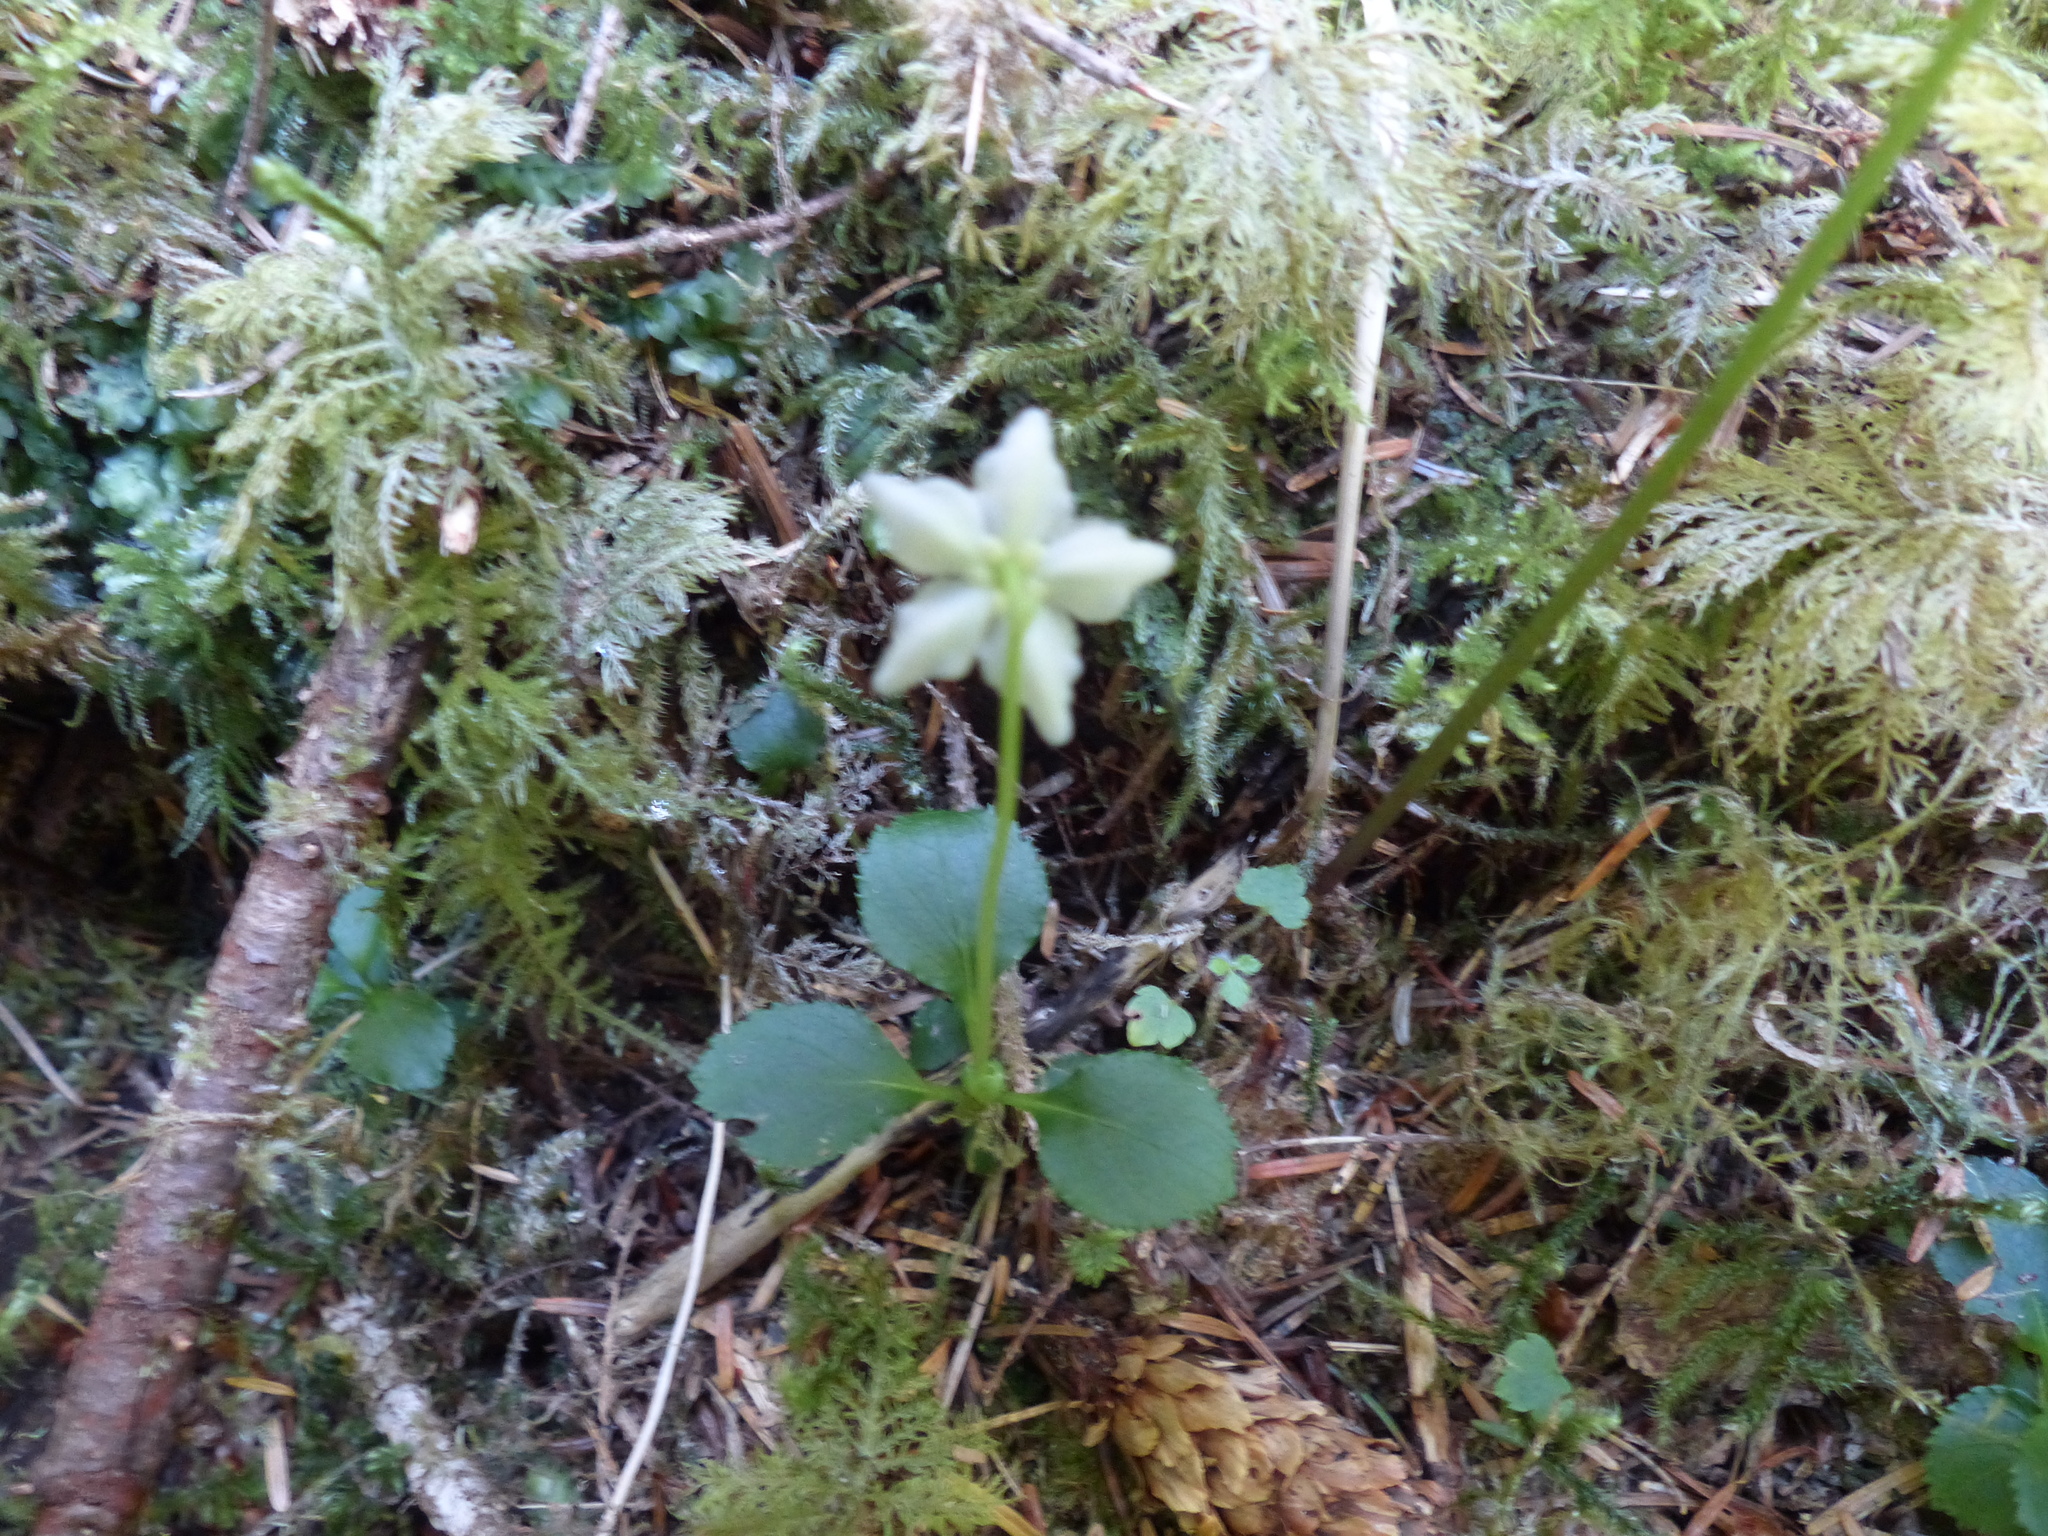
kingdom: Plantae
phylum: Tracheophyta
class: Magnoliopsida
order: Ericales
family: Ericaceae
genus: Moneses
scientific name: Moneses uniflora
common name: One-flowered wintergreen
